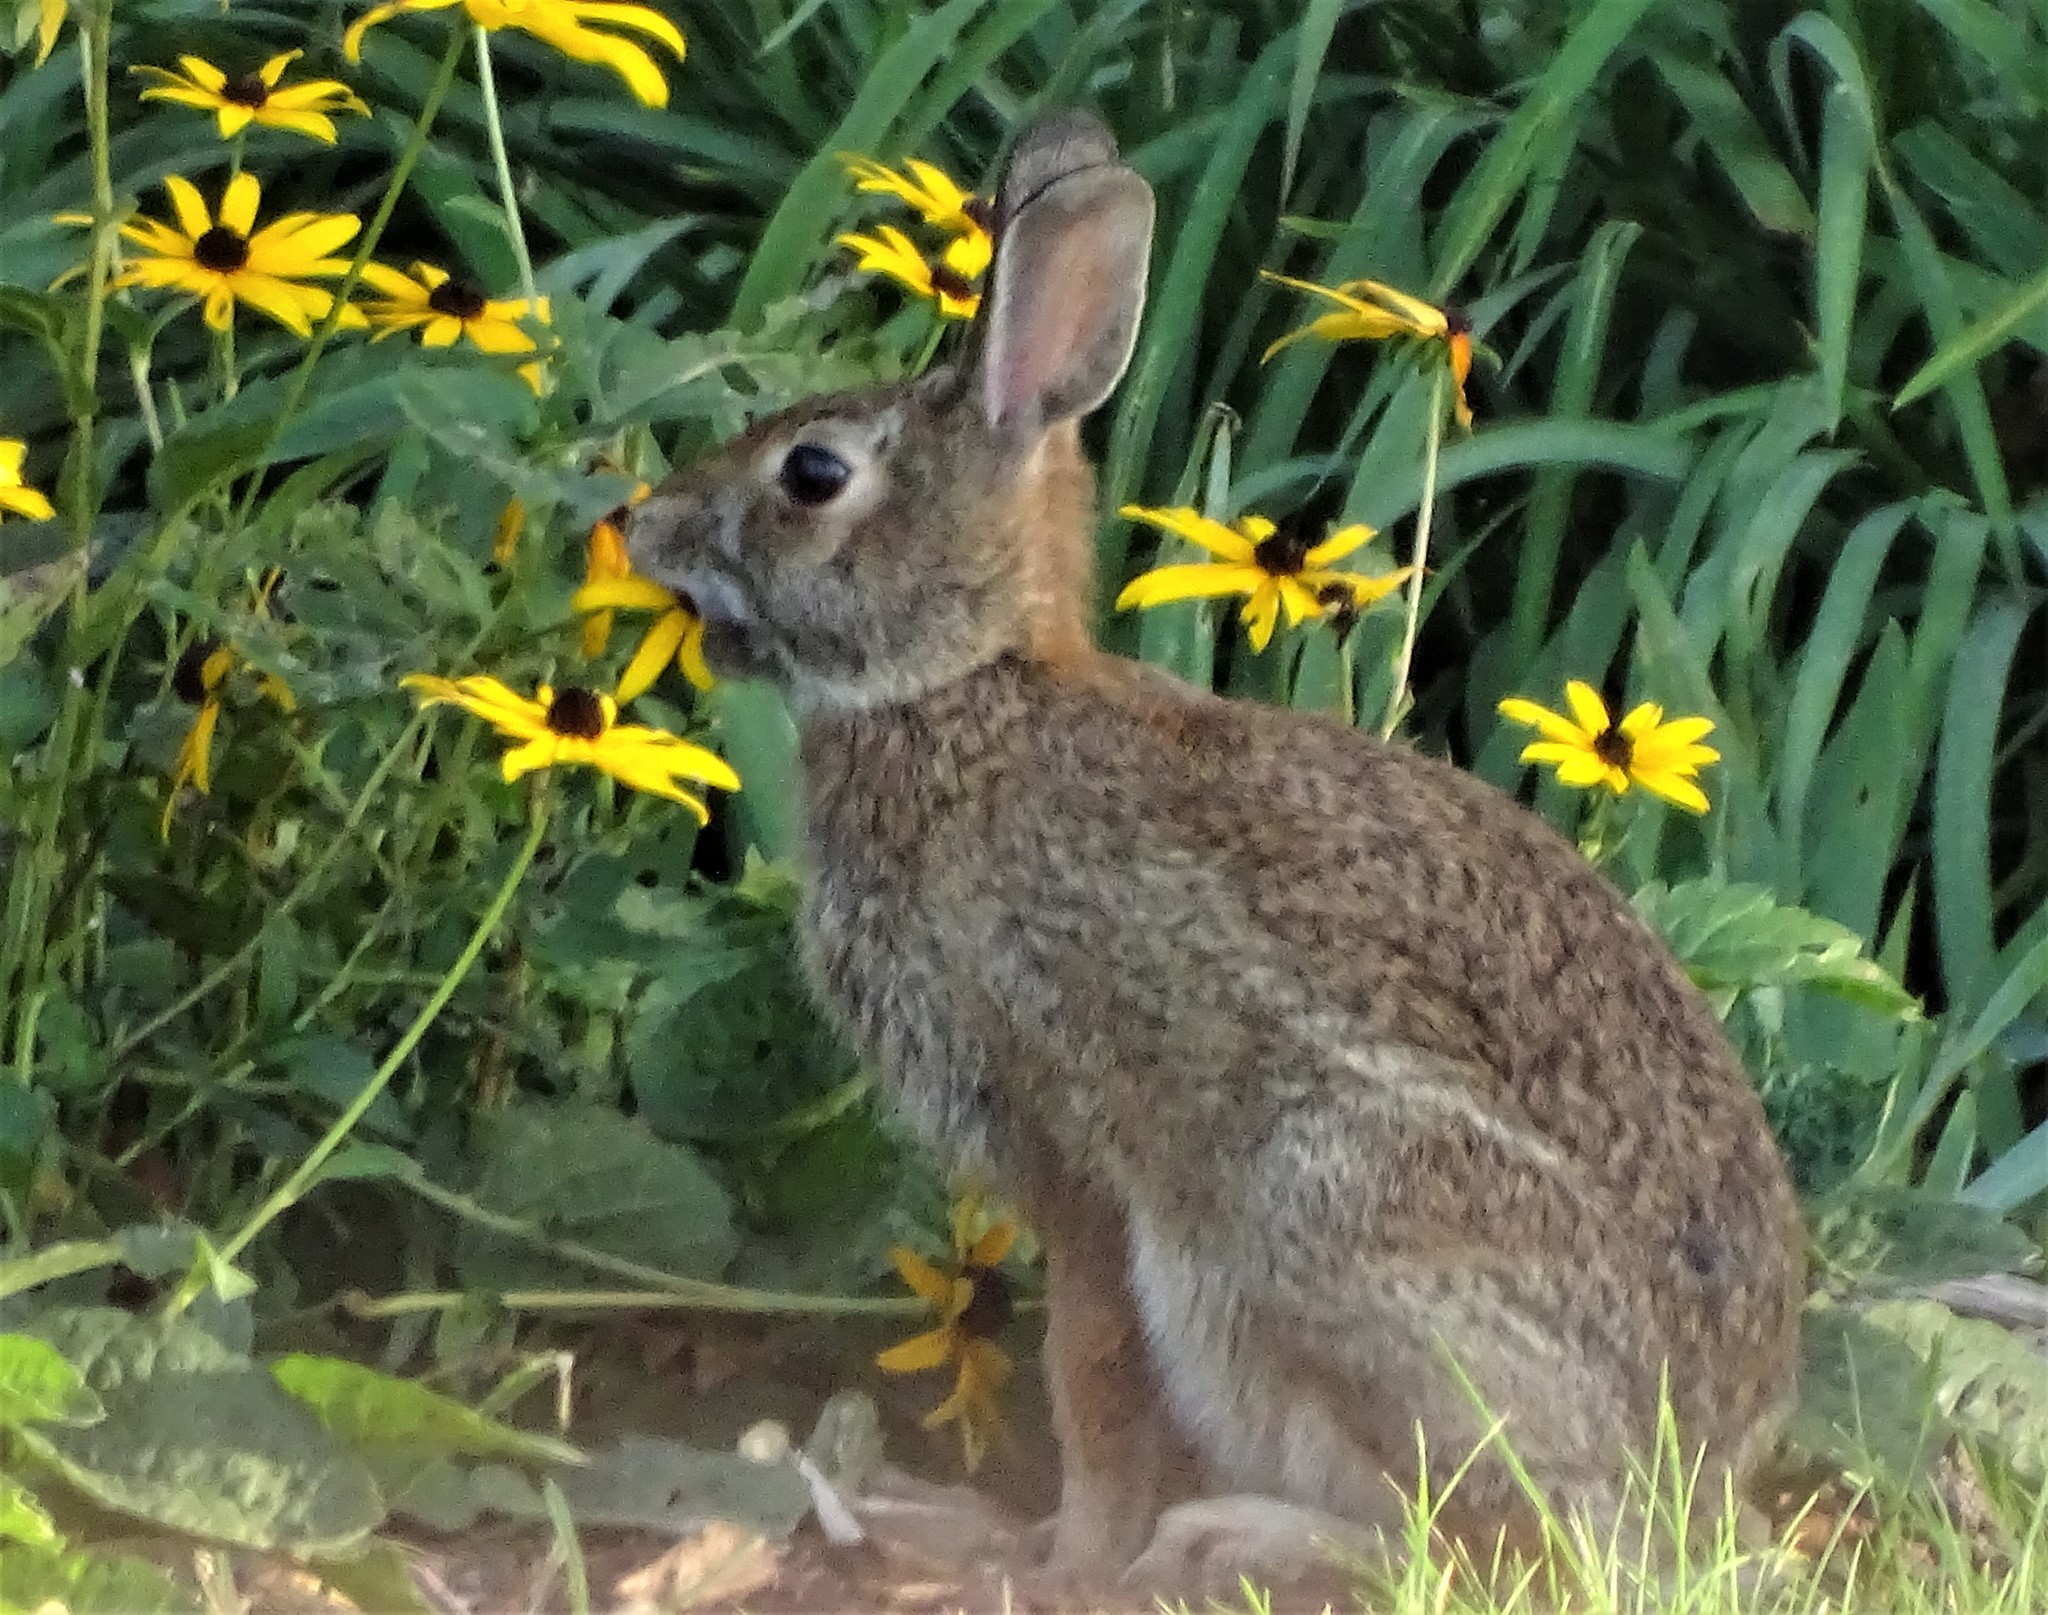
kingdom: Animalia
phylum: Chordata
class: Mammalia
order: Lagomorpha
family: Leporidae
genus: Sylvilagus
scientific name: Sylvilagus floridanus
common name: Eastern cottontail
